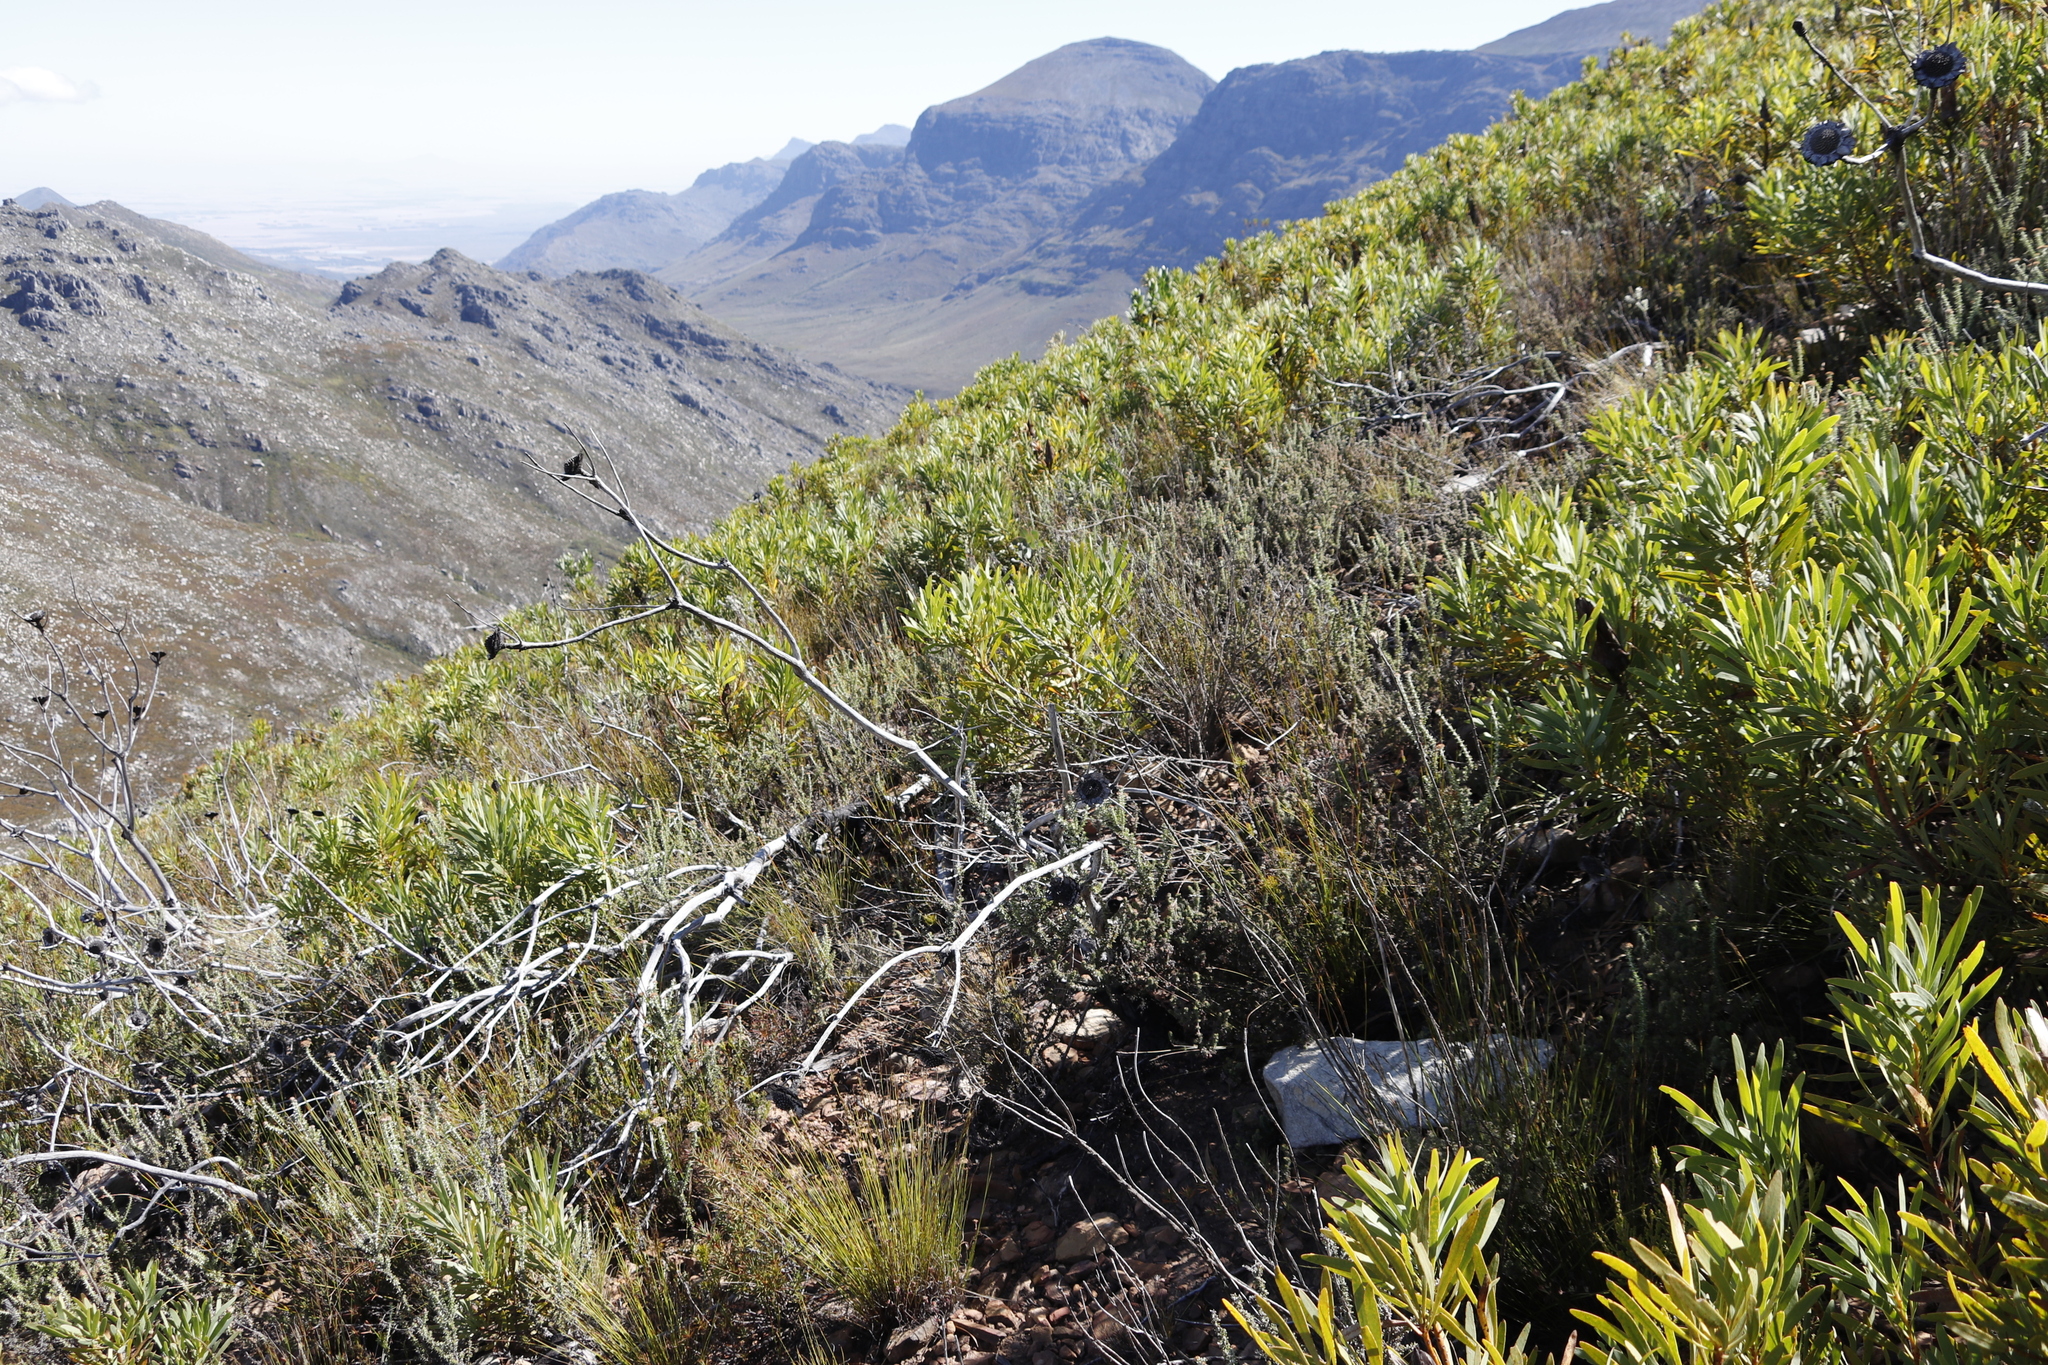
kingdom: Plantae
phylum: Tracheophyta
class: Magnoliopsida
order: Proteales
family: Proteaceae
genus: Protea
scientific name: Protea repens
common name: Sugarbush
